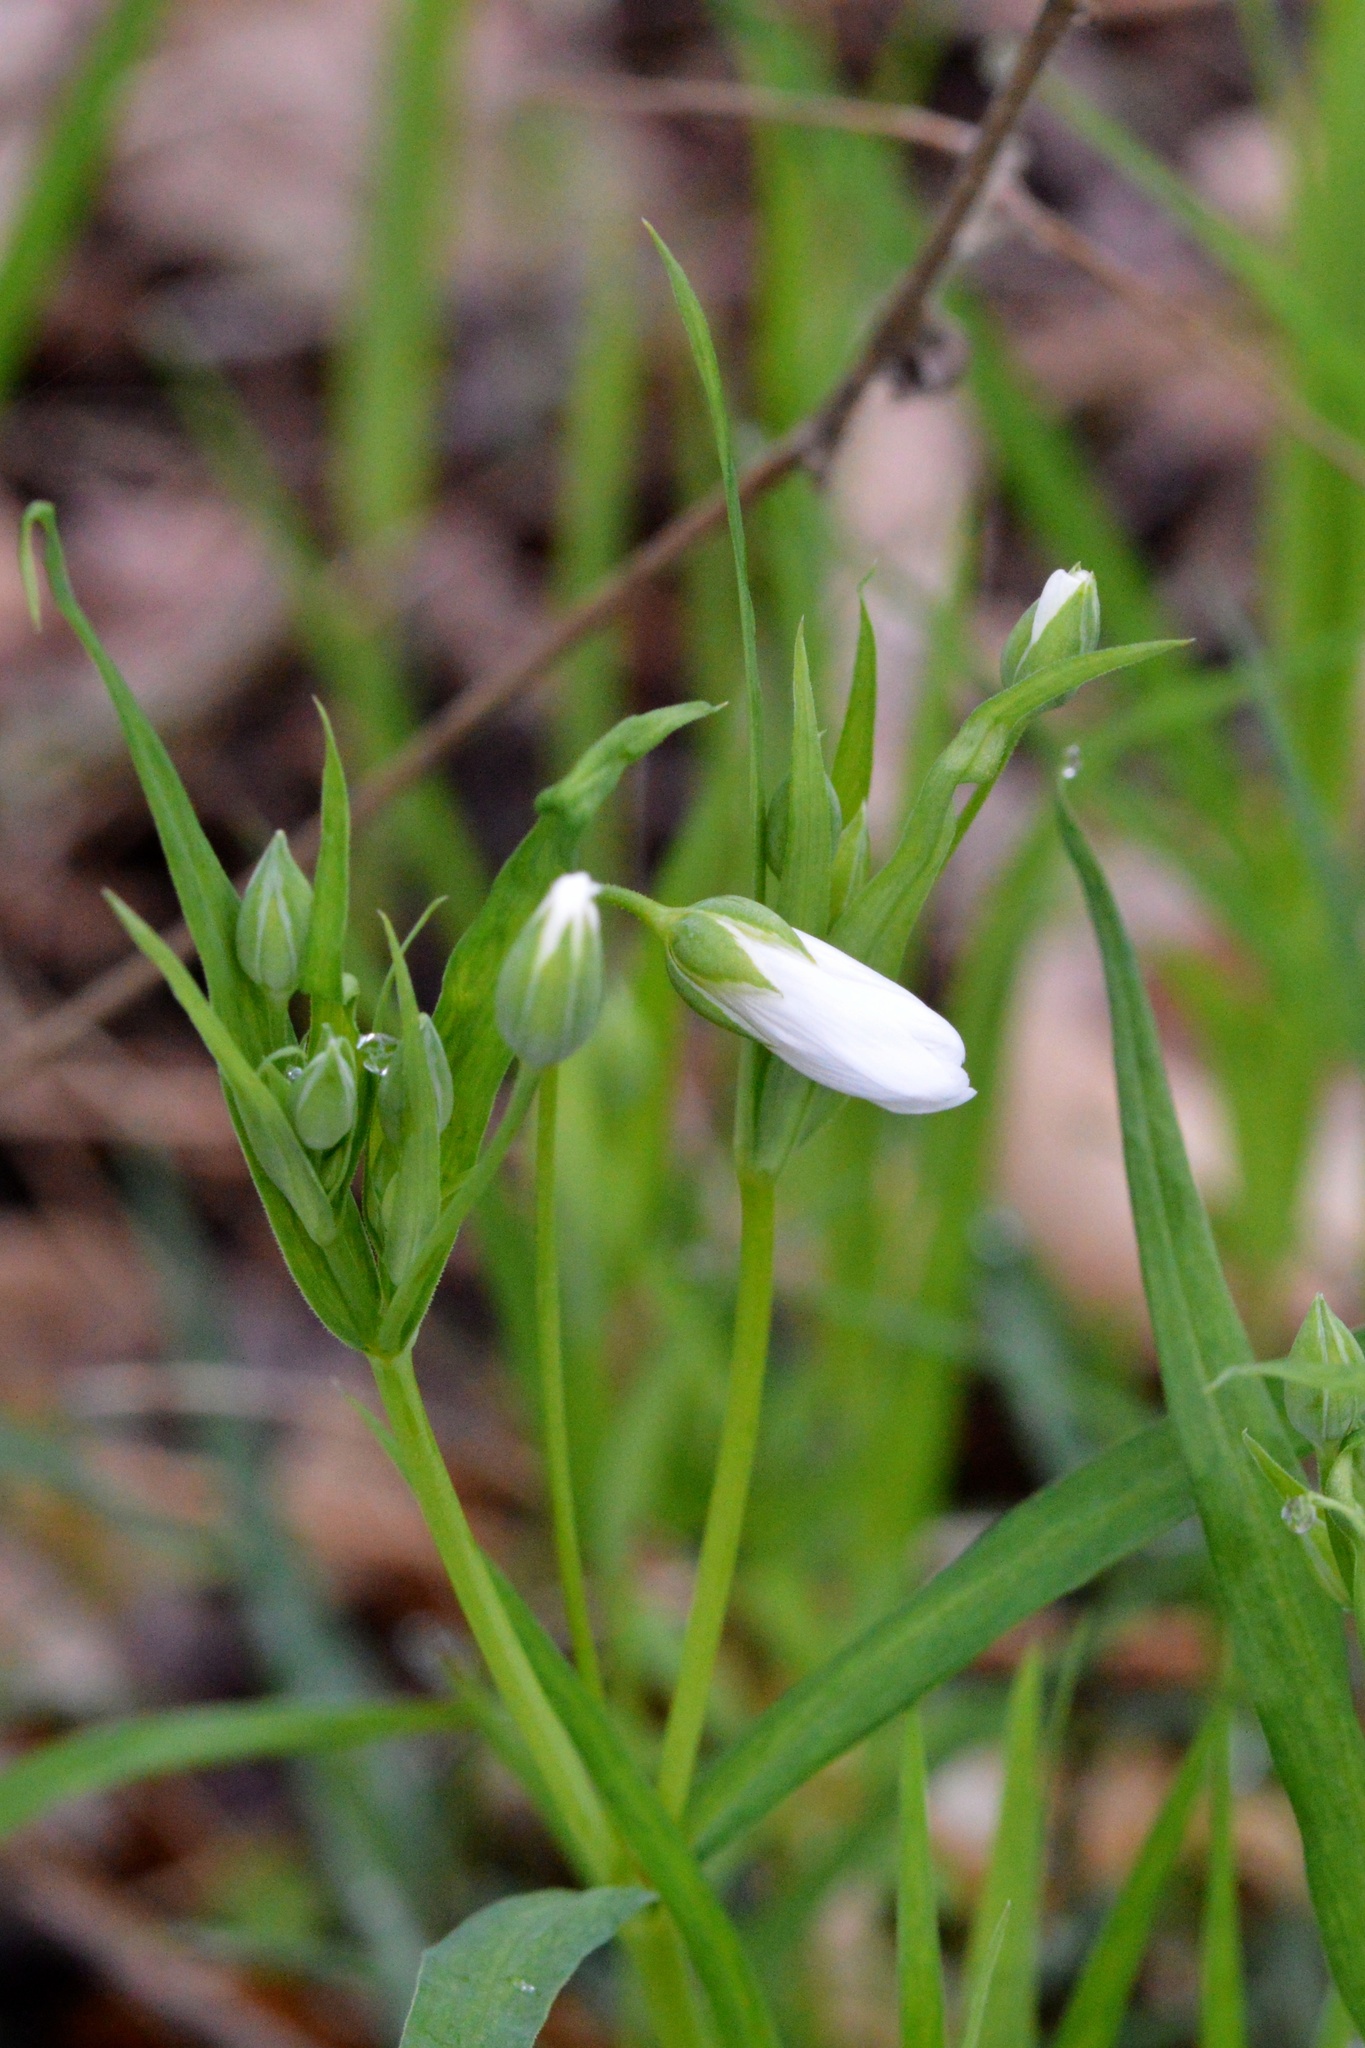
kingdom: Plantae
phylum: Tracheophyta
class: Magnoliopsida
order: Caryophyllales
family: Caryophyllaceae
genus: Rabelera
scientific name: Rabelera holostea
